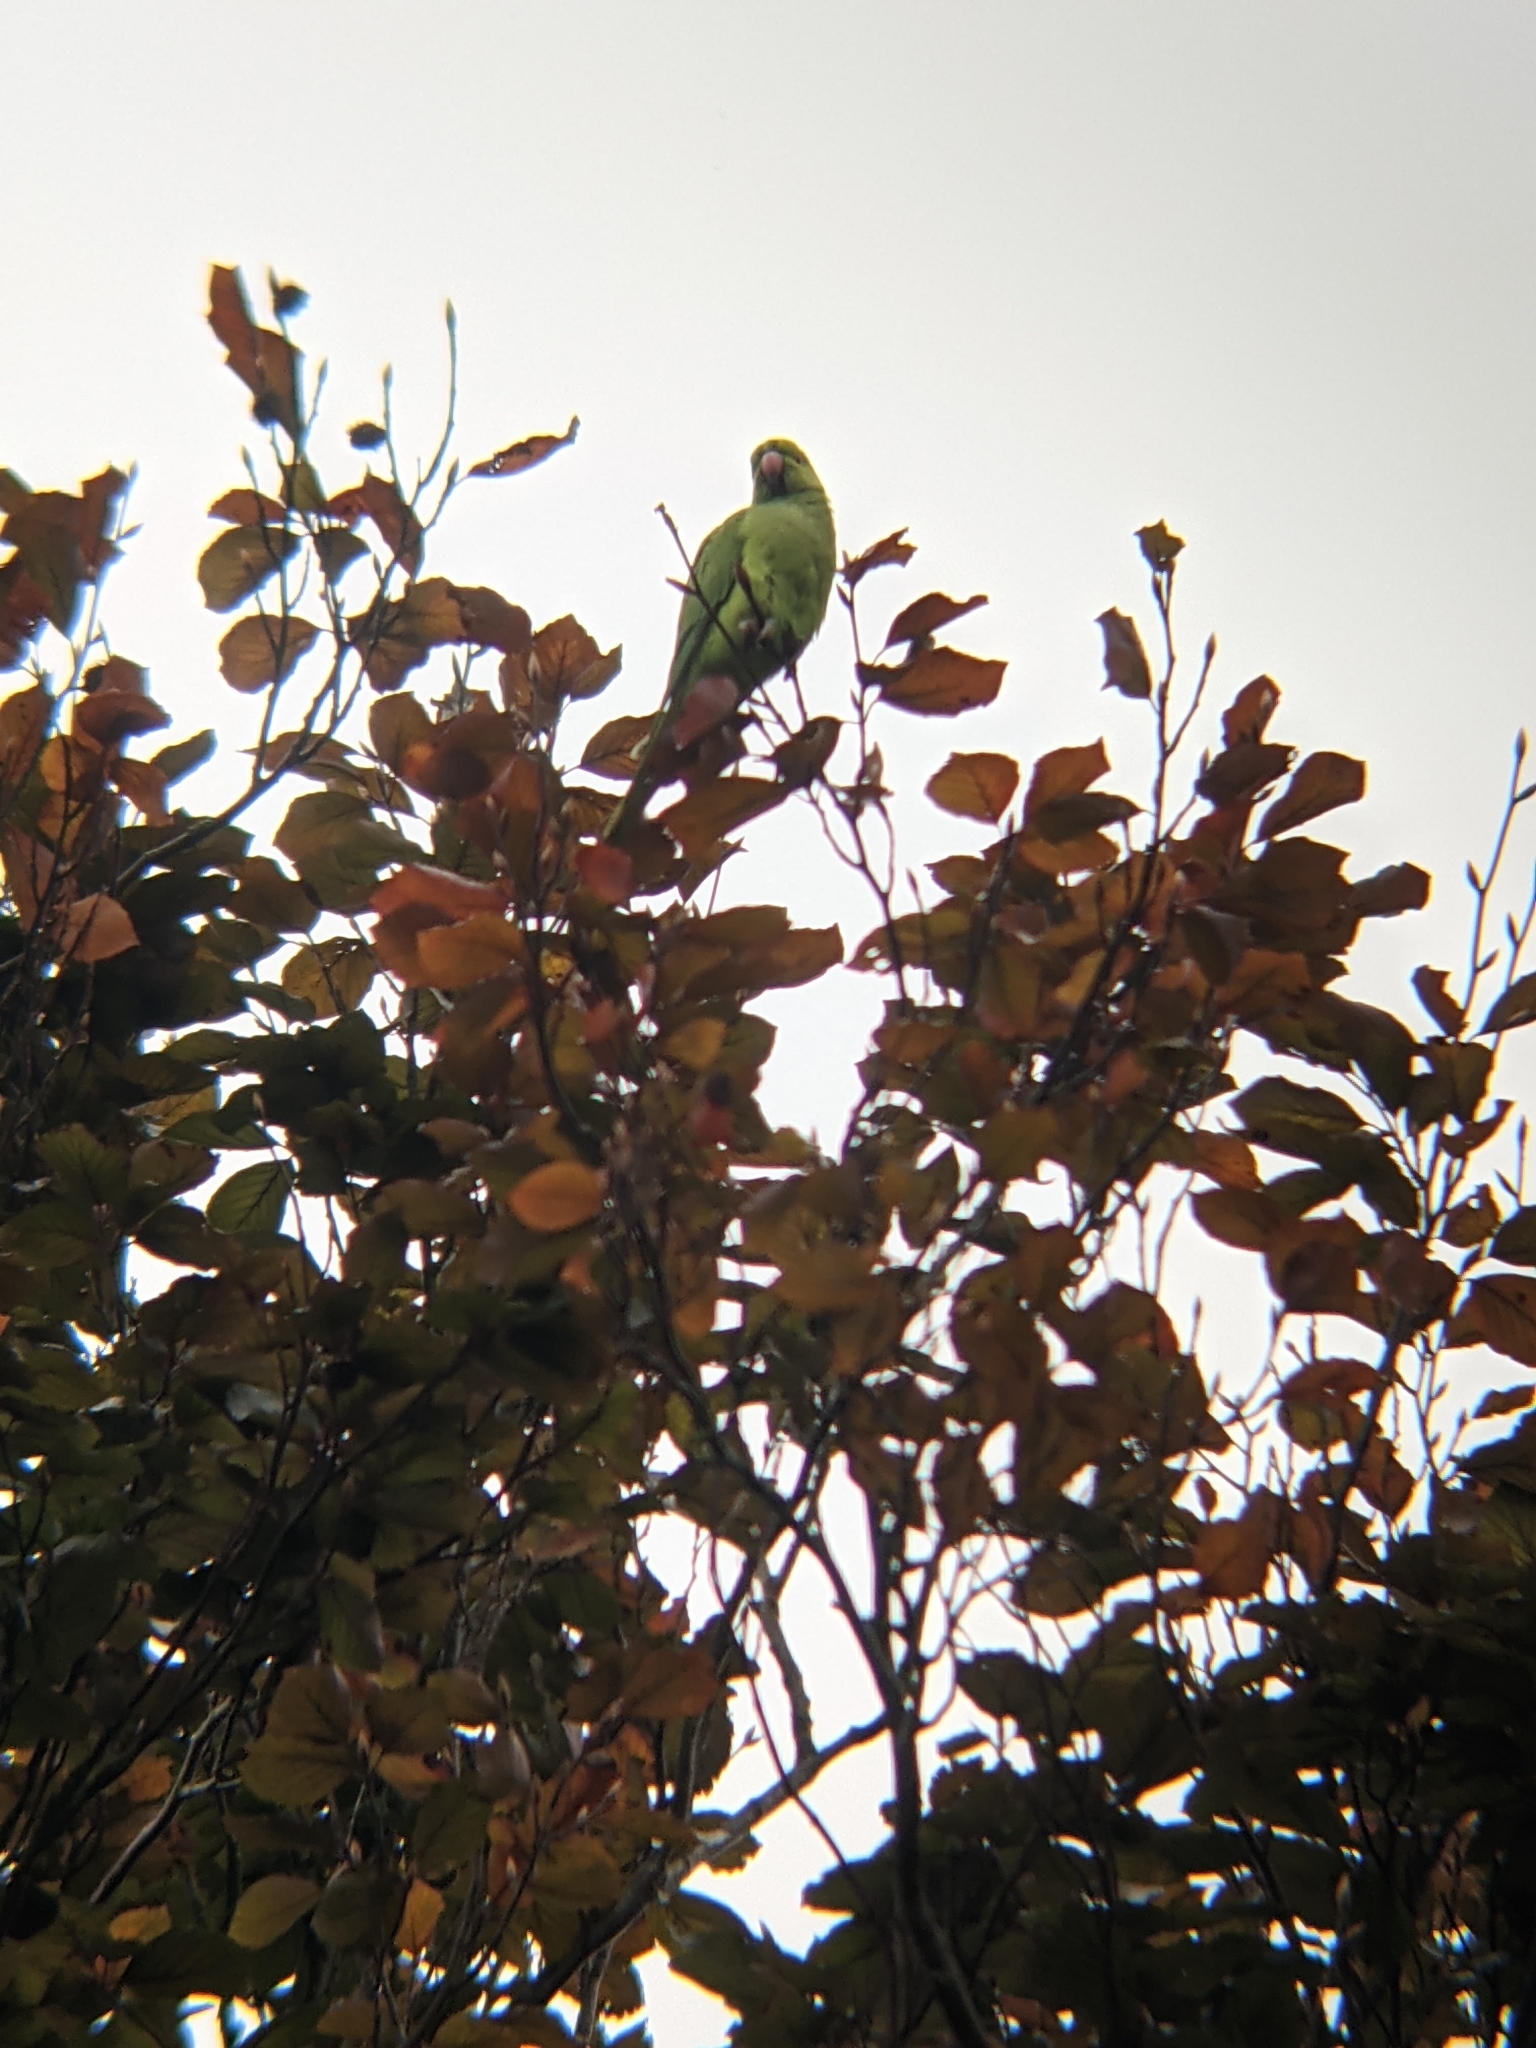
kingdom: Animalia
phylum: Chordata
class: Aves
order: Psittaciformes
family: Psittacidae
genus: Psittacula
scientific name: Psittacula krameri
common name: Rose-ringed parakeet
